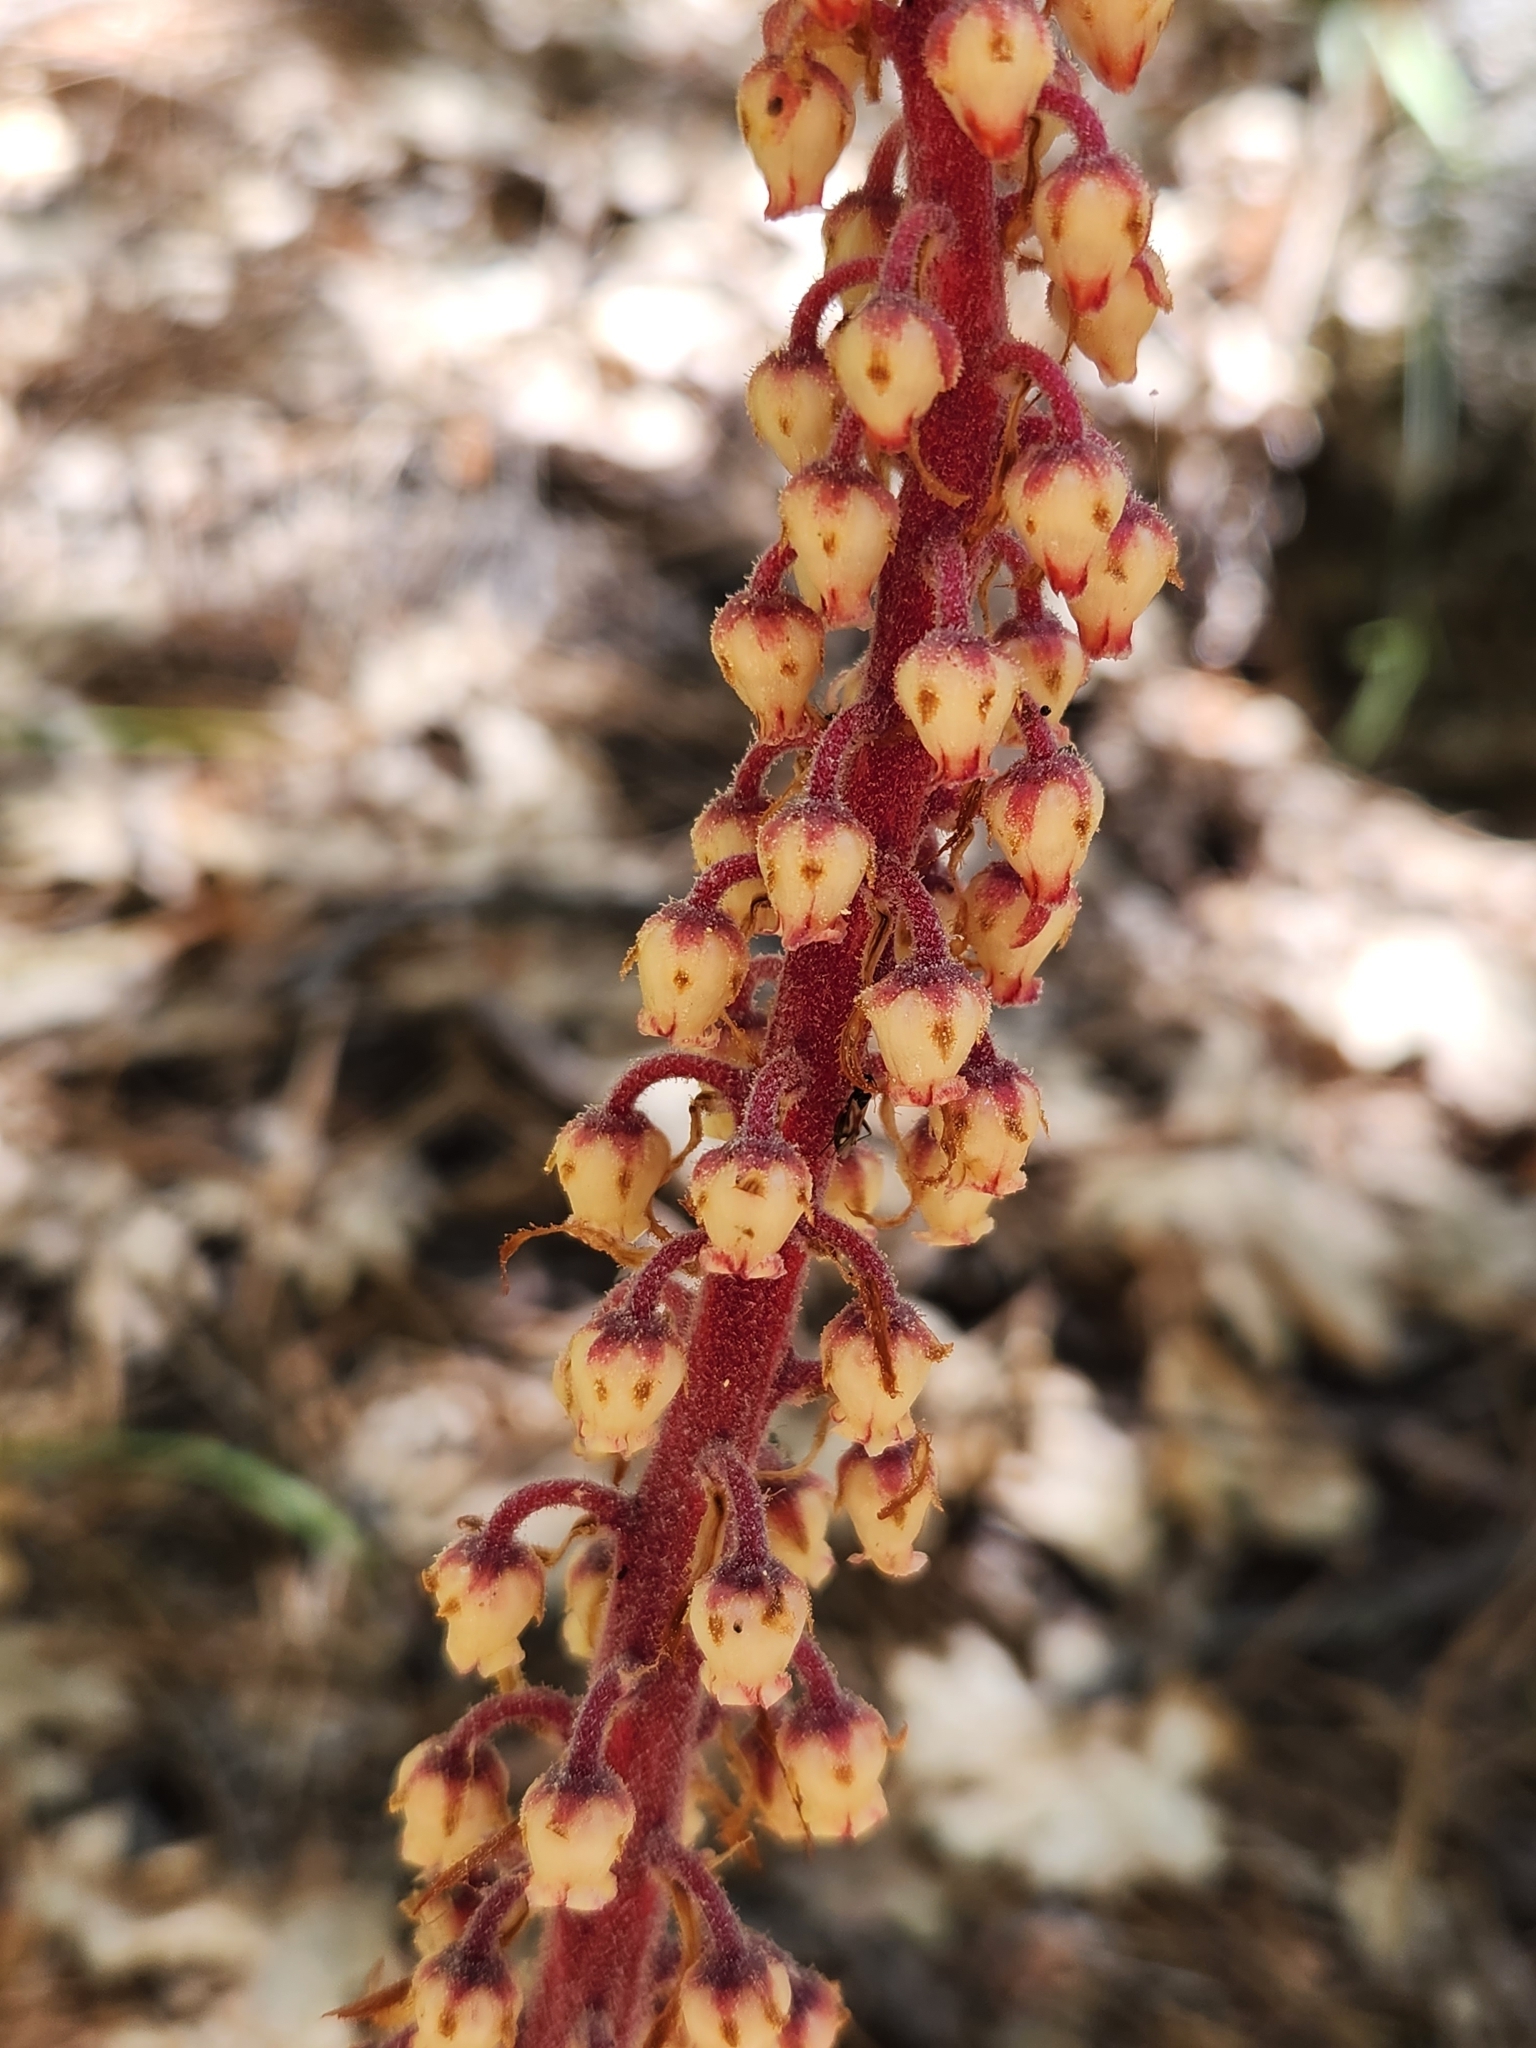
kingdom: Plantae
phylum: Tracheophyta
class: Magnoliopsida
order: Ericales
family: Ericaceae
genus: Pterospora
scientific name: Pterospora andromedea
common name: Giant bird's-nest
